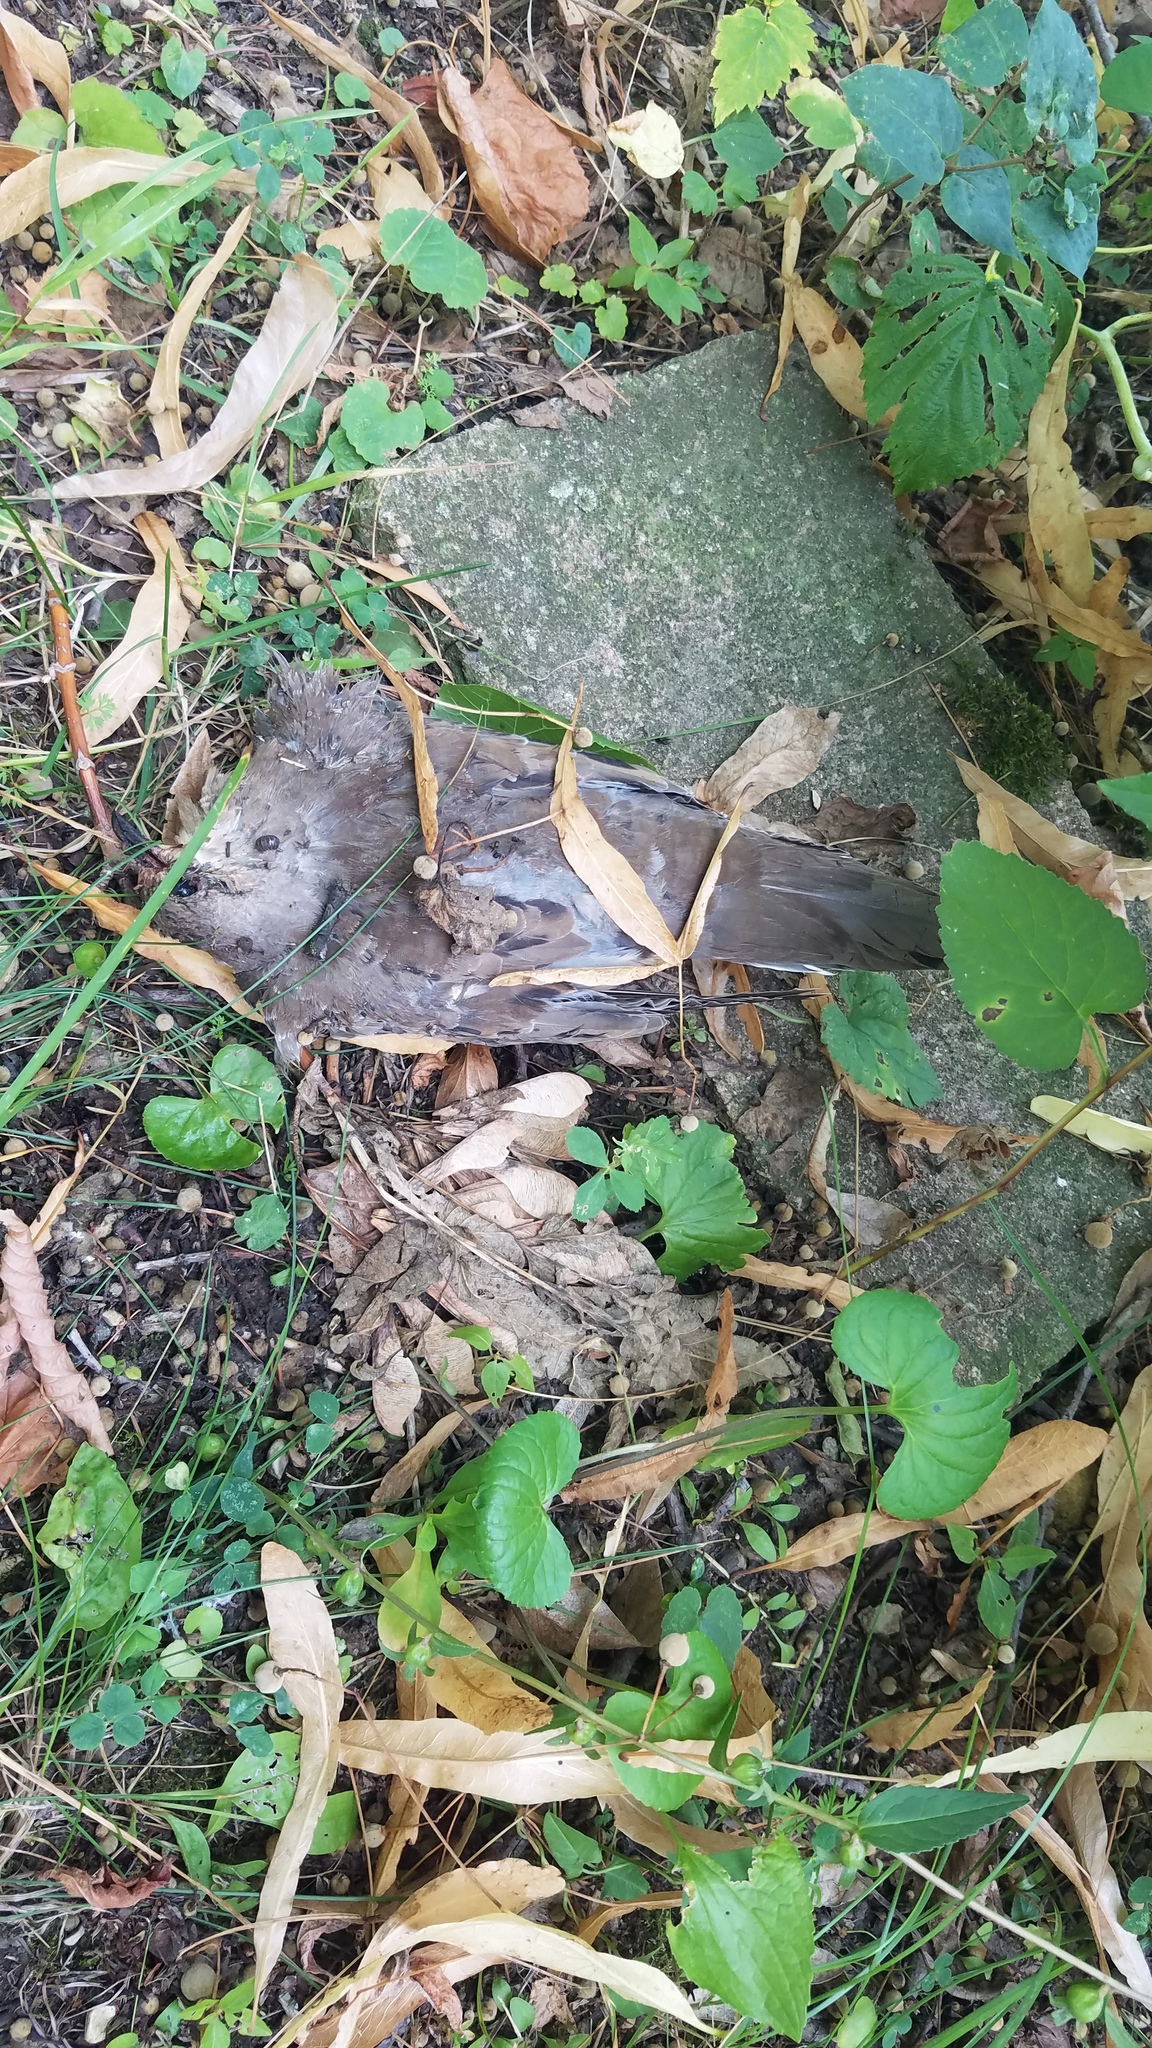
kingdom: Animalia
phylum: Chordata
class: Aves
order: Columbiformes
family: Columbidae
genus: Zenaida
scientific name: Zenaida macroura
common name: Mourning dove
